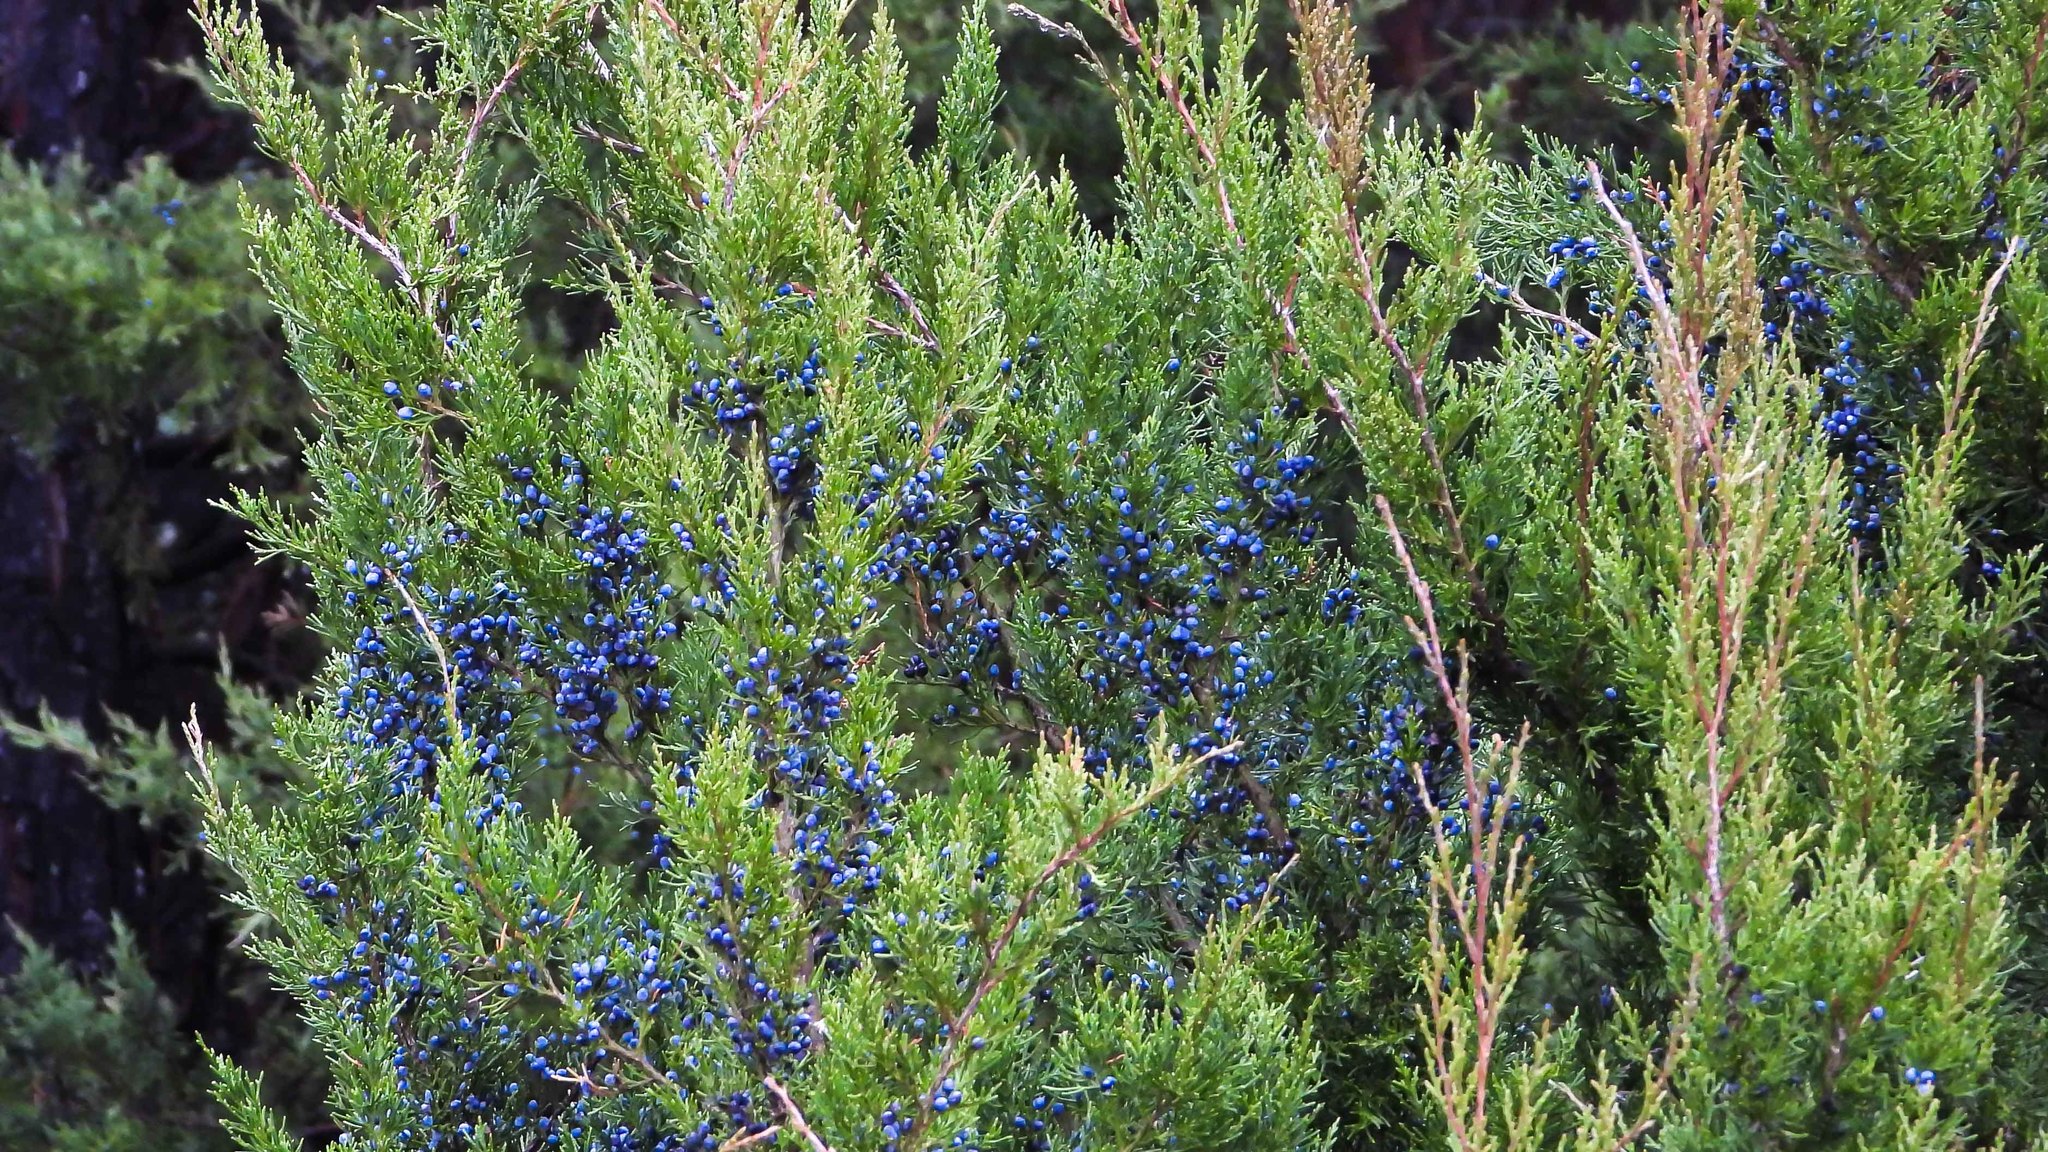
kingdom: Plantae
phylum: Tracheophyta
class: Pinopsida
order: Pinales
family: Cupressaceae
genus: Juniperus
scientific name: Juniperus virginiana
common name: Red juniper
